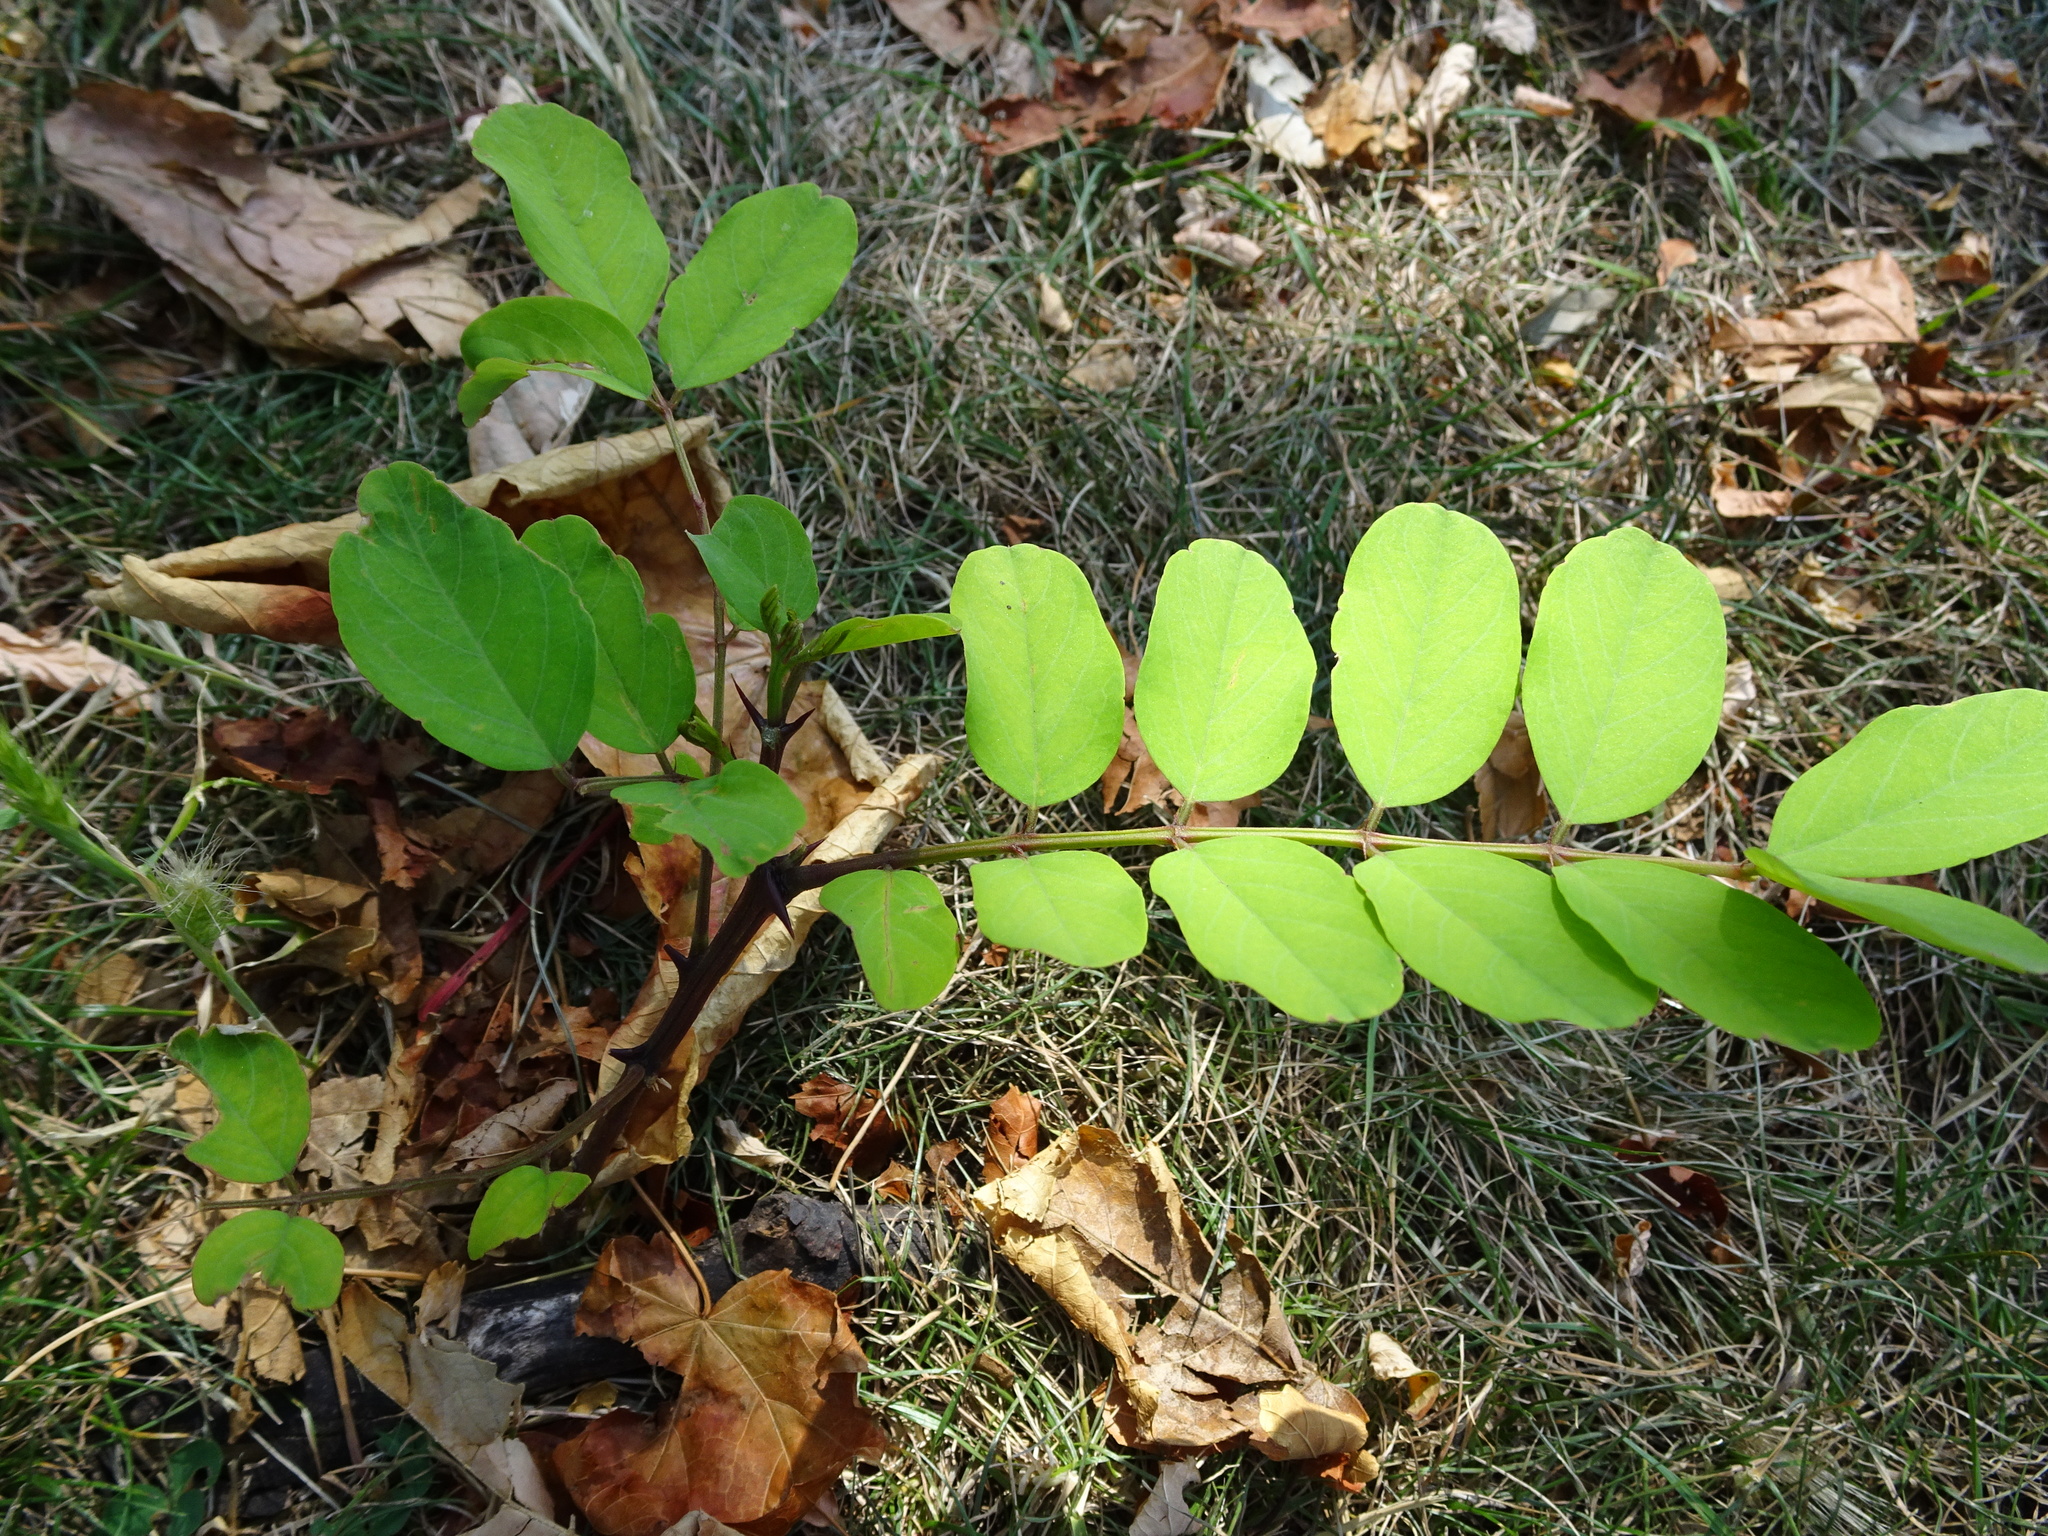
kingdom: Plantae
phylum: Tracheophyta
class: Magnoliopsida
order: Fabales
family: Fabaceae
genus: Robinia
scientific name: Robinia pseudoacacia
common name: Black locust
